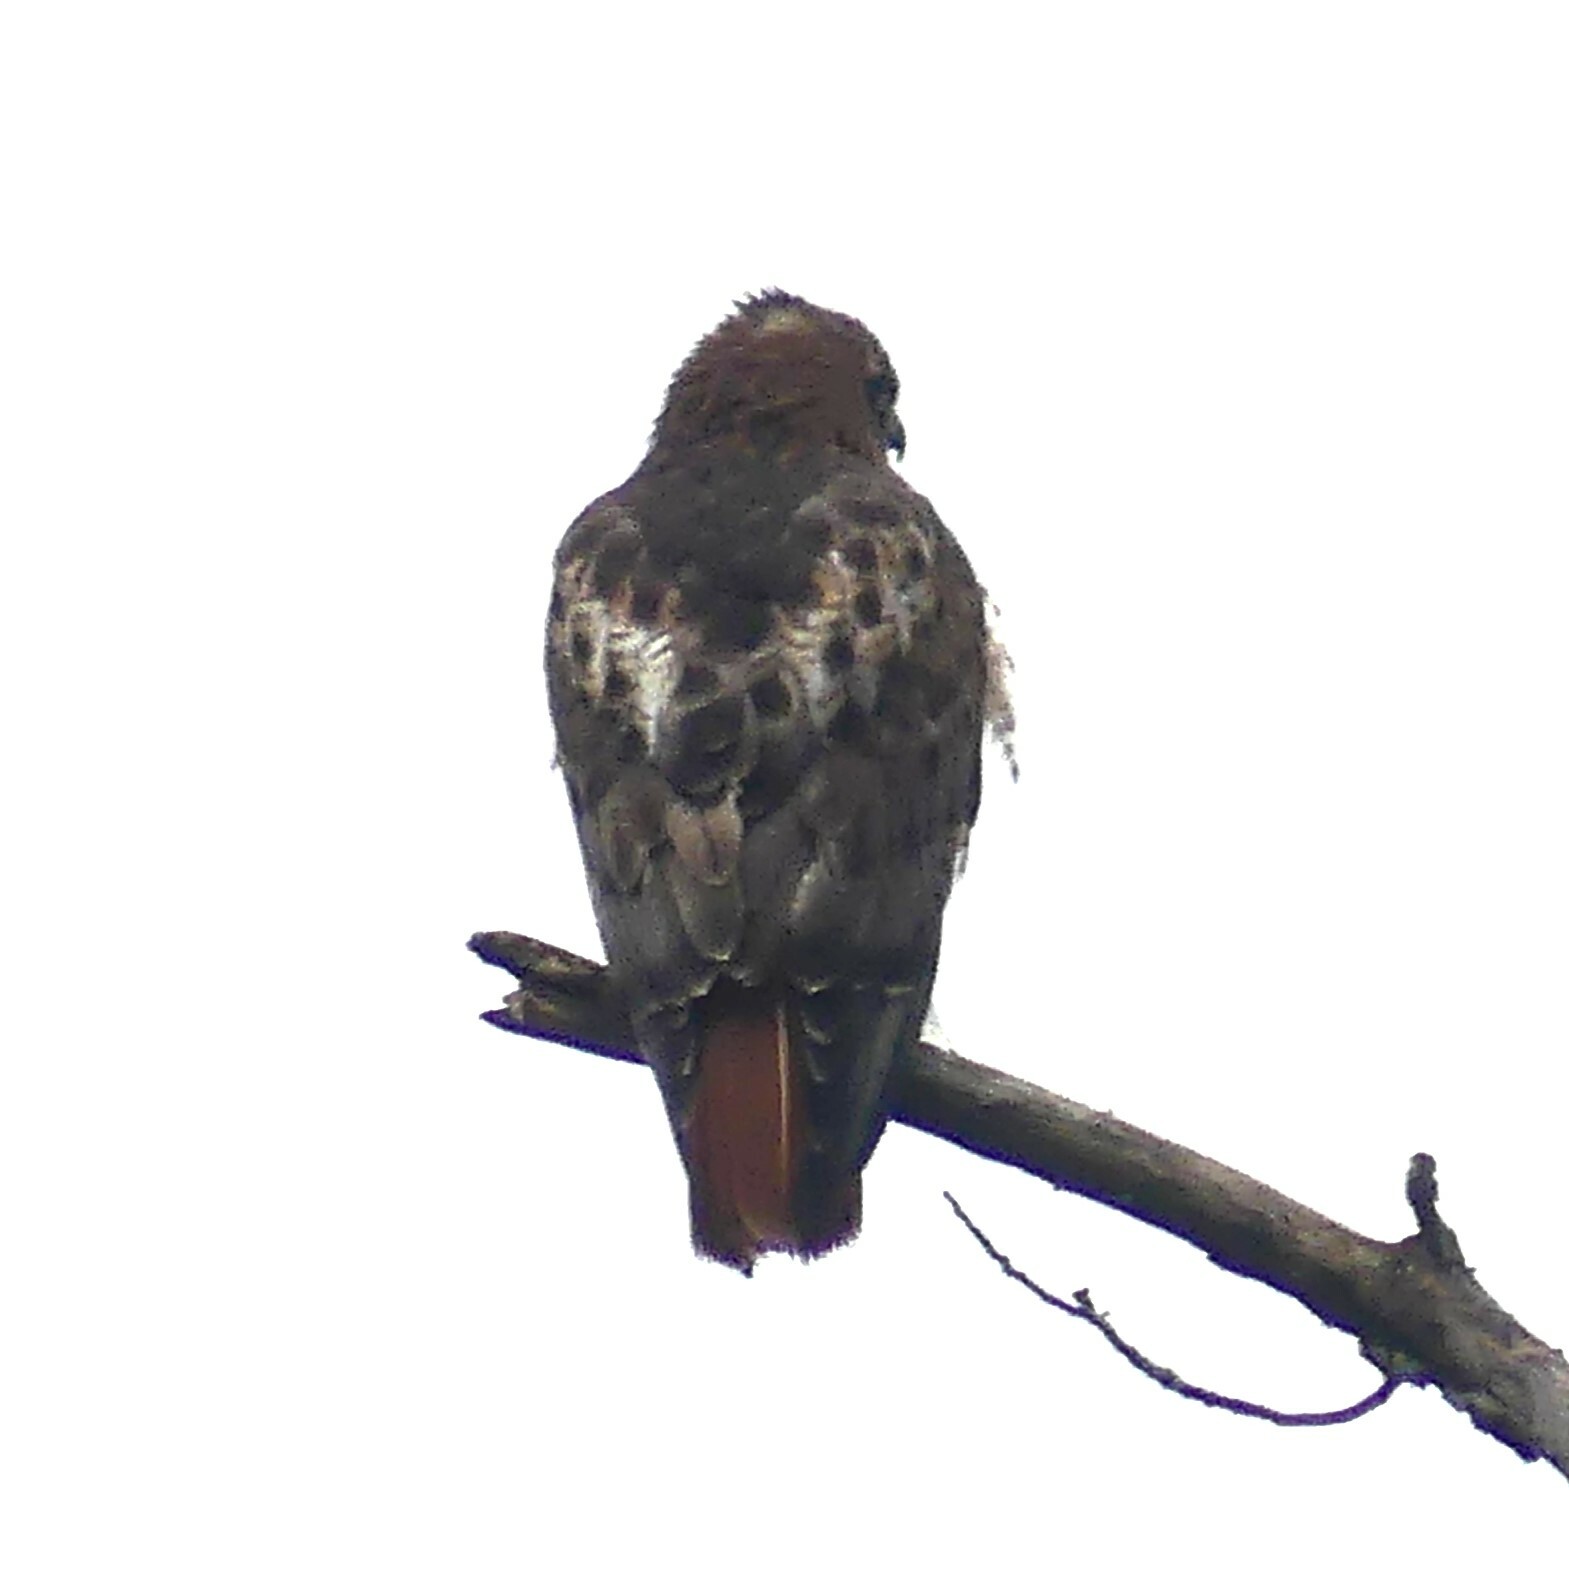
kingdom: Animalia
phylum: Chordata
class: Aves
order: Accipitriformes
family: Accipitridae
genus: Buteo
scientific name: Buteo jamaicensis
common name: Red-tailed hawk
